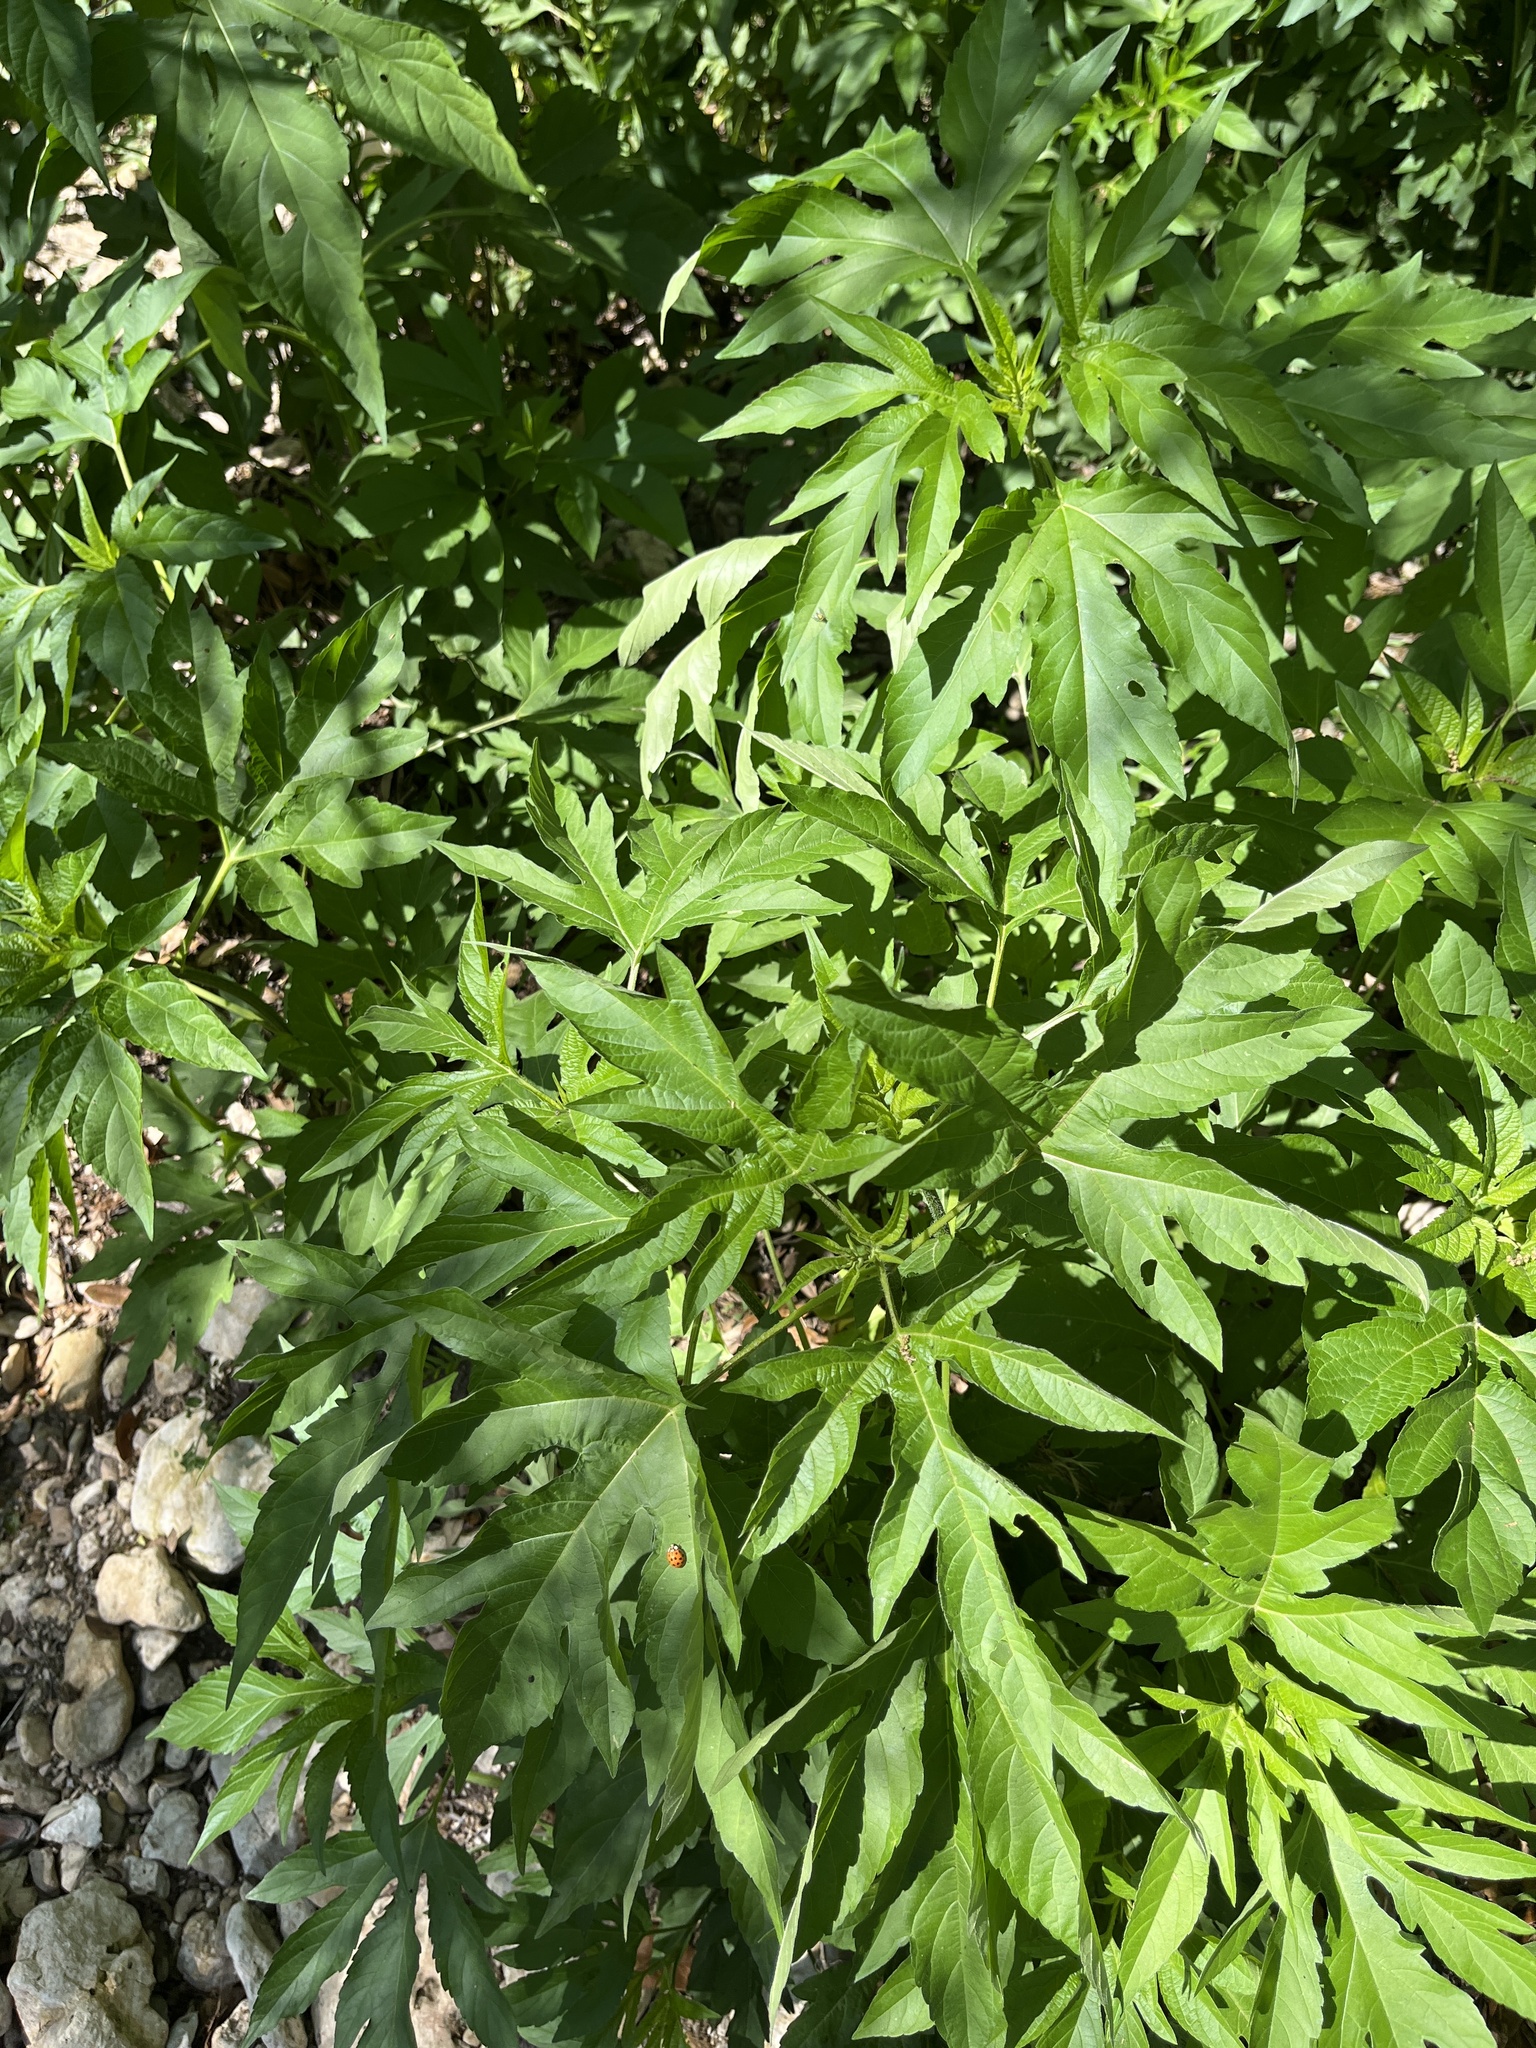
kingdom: Plantae
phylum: Tracheophyta
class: Magnoliopsida
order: Asterales
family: Asteraceae
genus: Ambrosia
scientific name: Ambrosia trifida
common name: Giant ragweed
